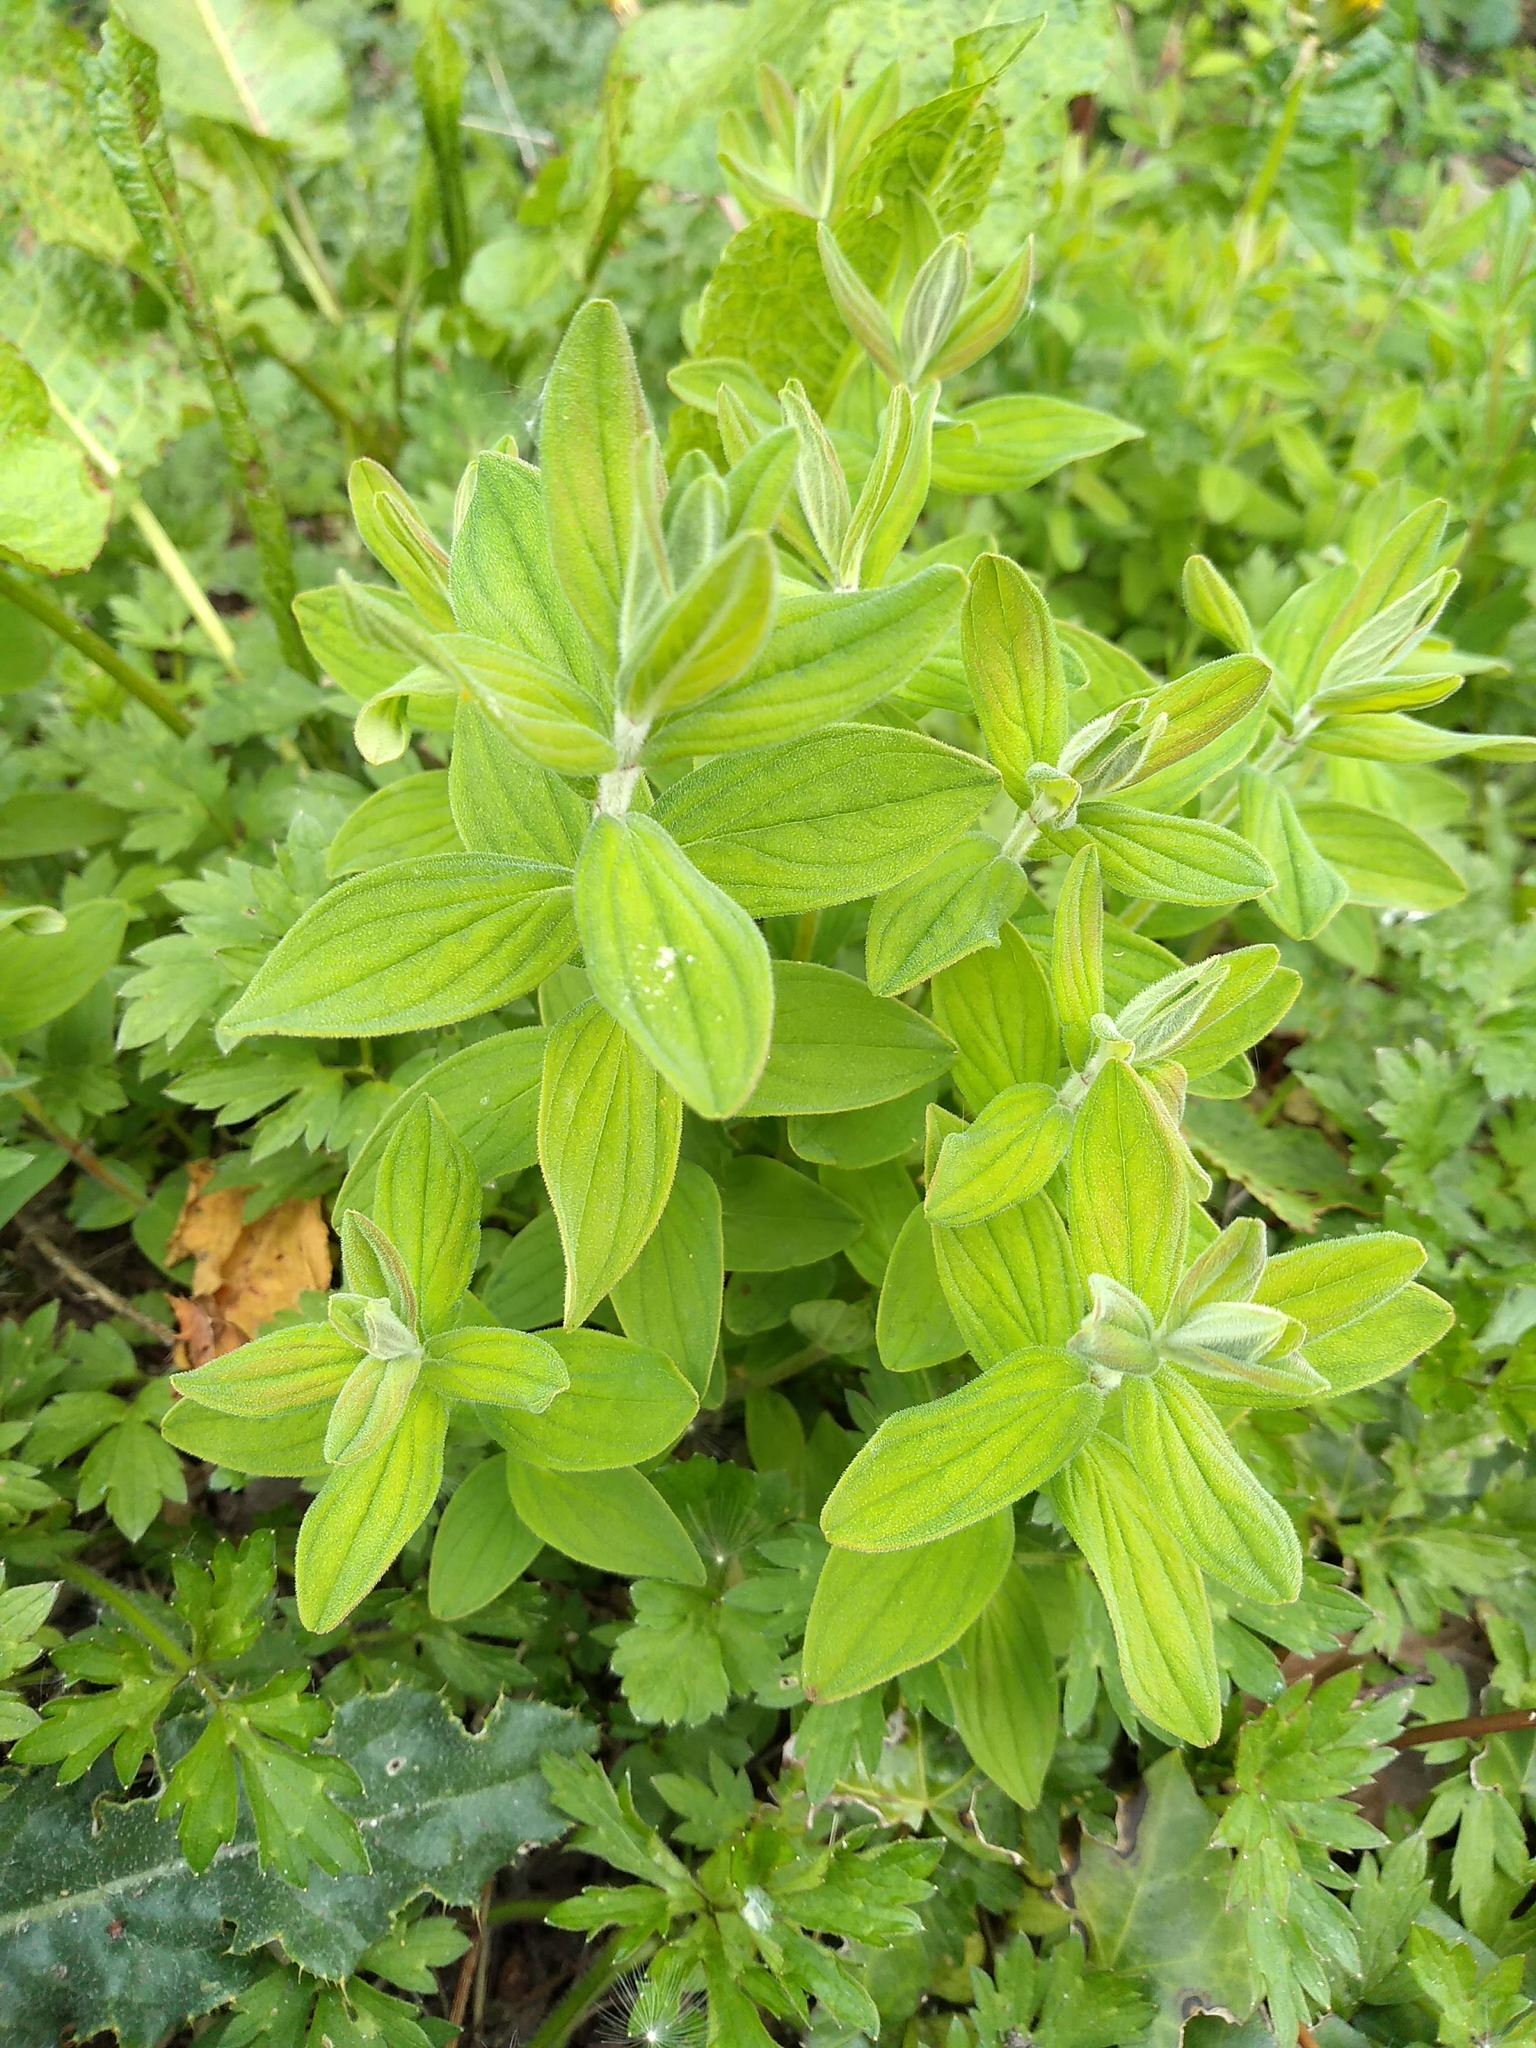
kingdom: Plantae
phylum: Tracheophyta
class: Magnoliopsida
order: Malpighiales
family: Hypericaceae
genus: Hypericum
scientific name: Hypericum hirsutum
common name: Hairy st. john's-wort
